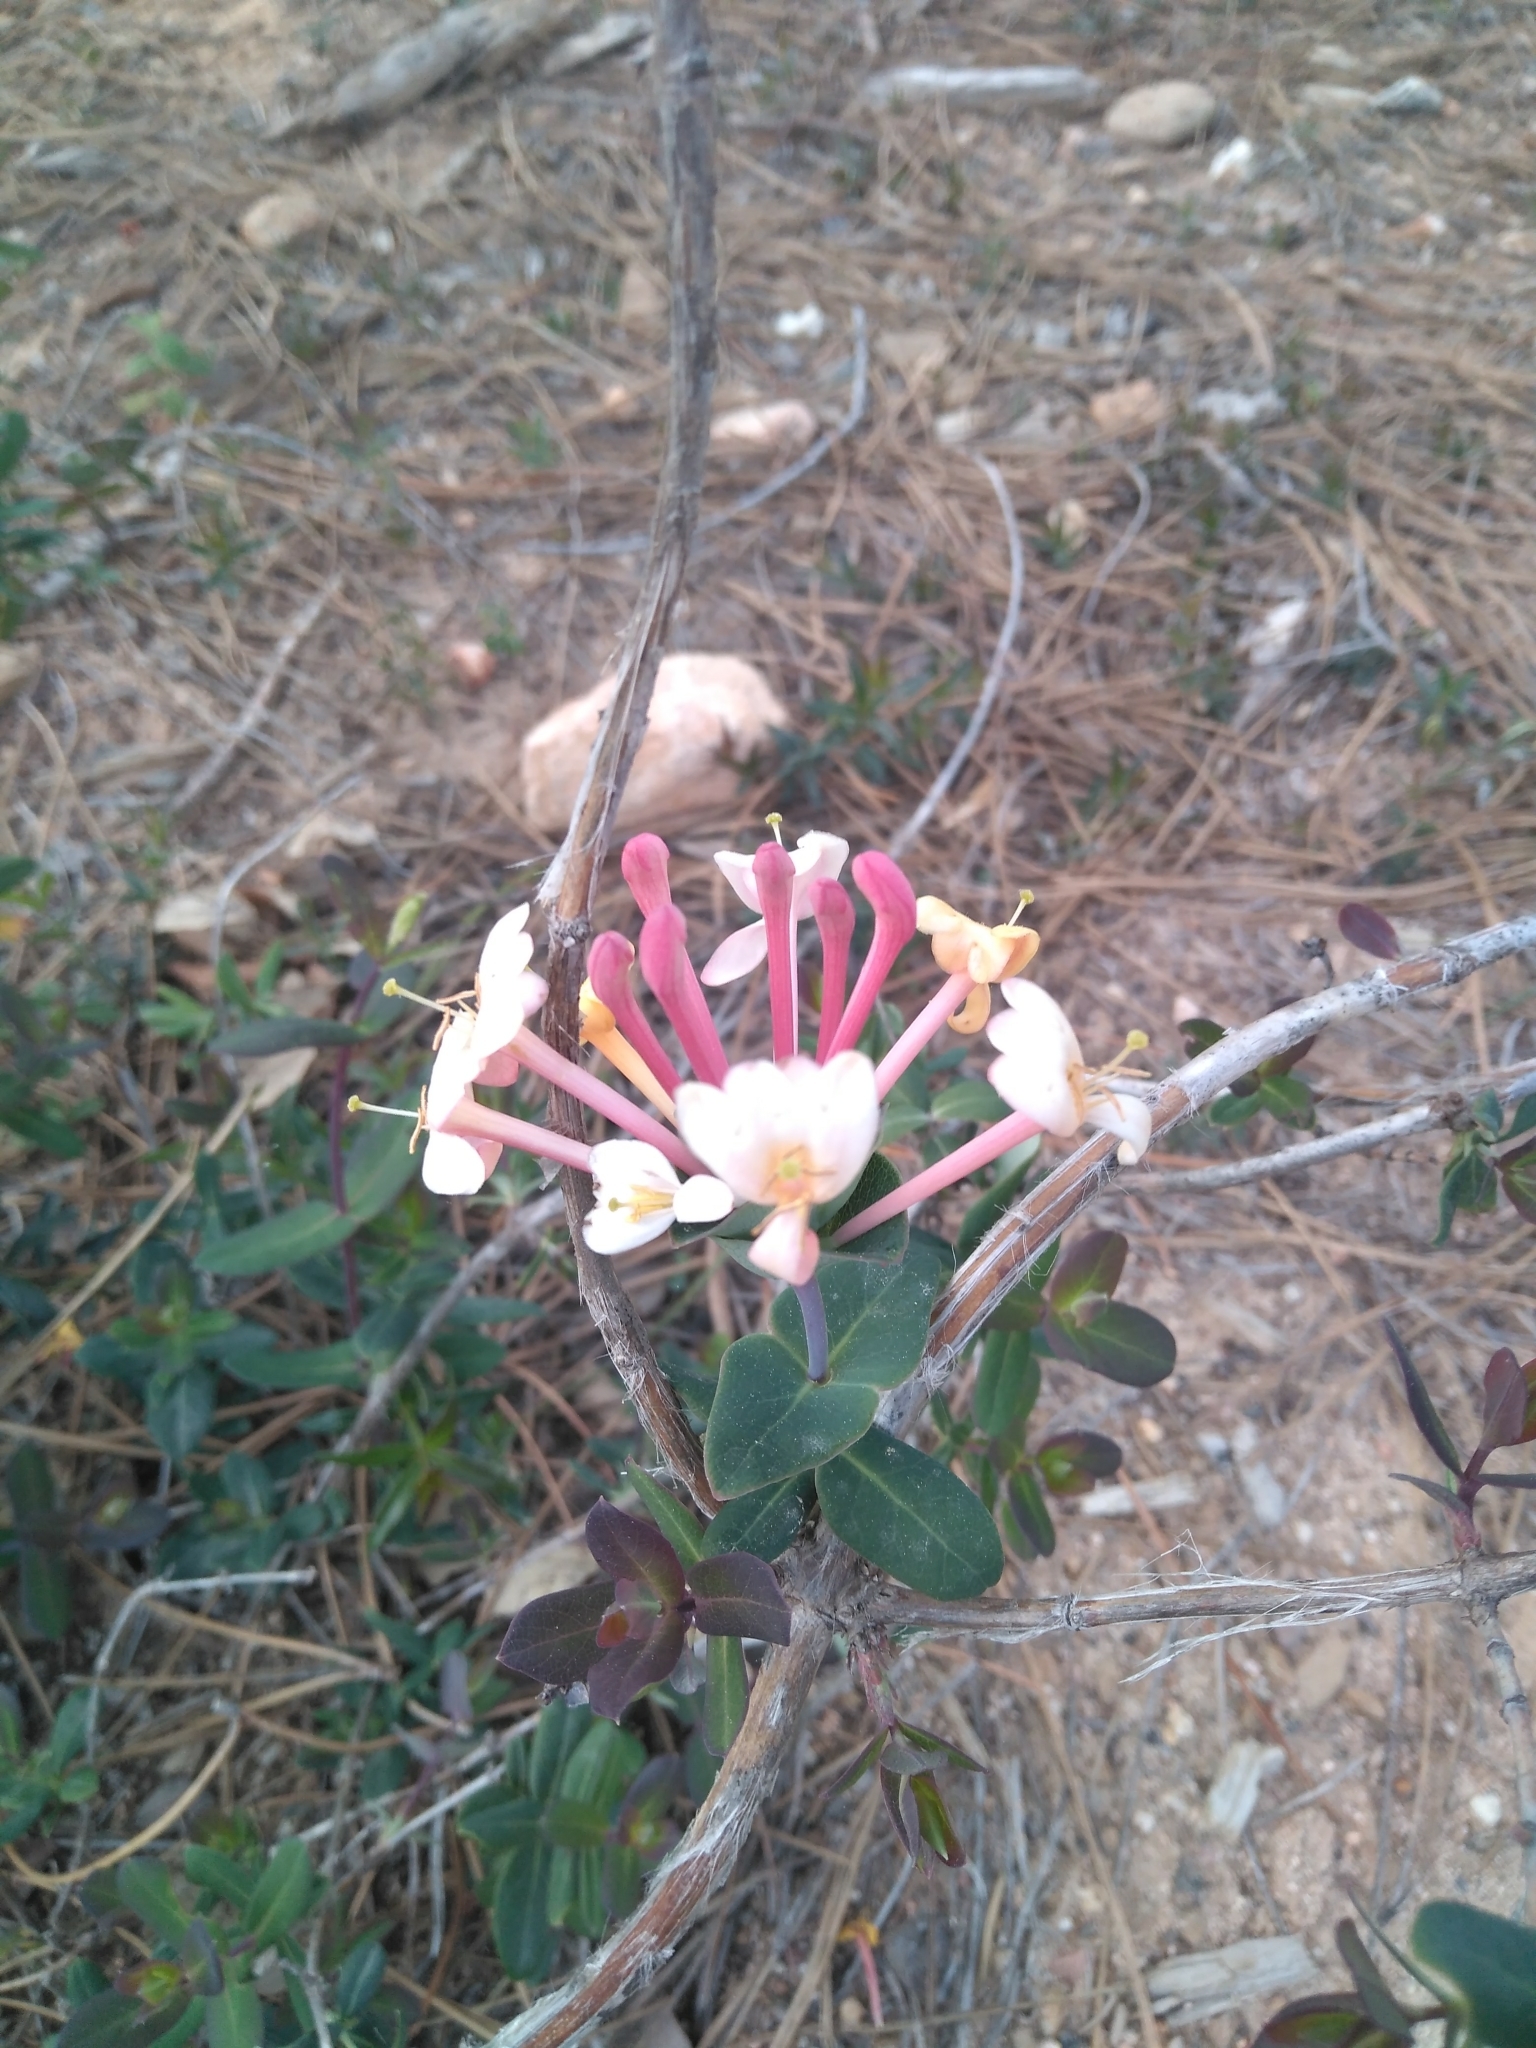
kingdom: Plantae
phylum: Tracheophyta
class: Magnoliopsida
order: Dipsacales
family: Caprifoliaceae
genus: Lonicera
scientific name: Lonicera implexa
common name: Minorca honeysuckle
